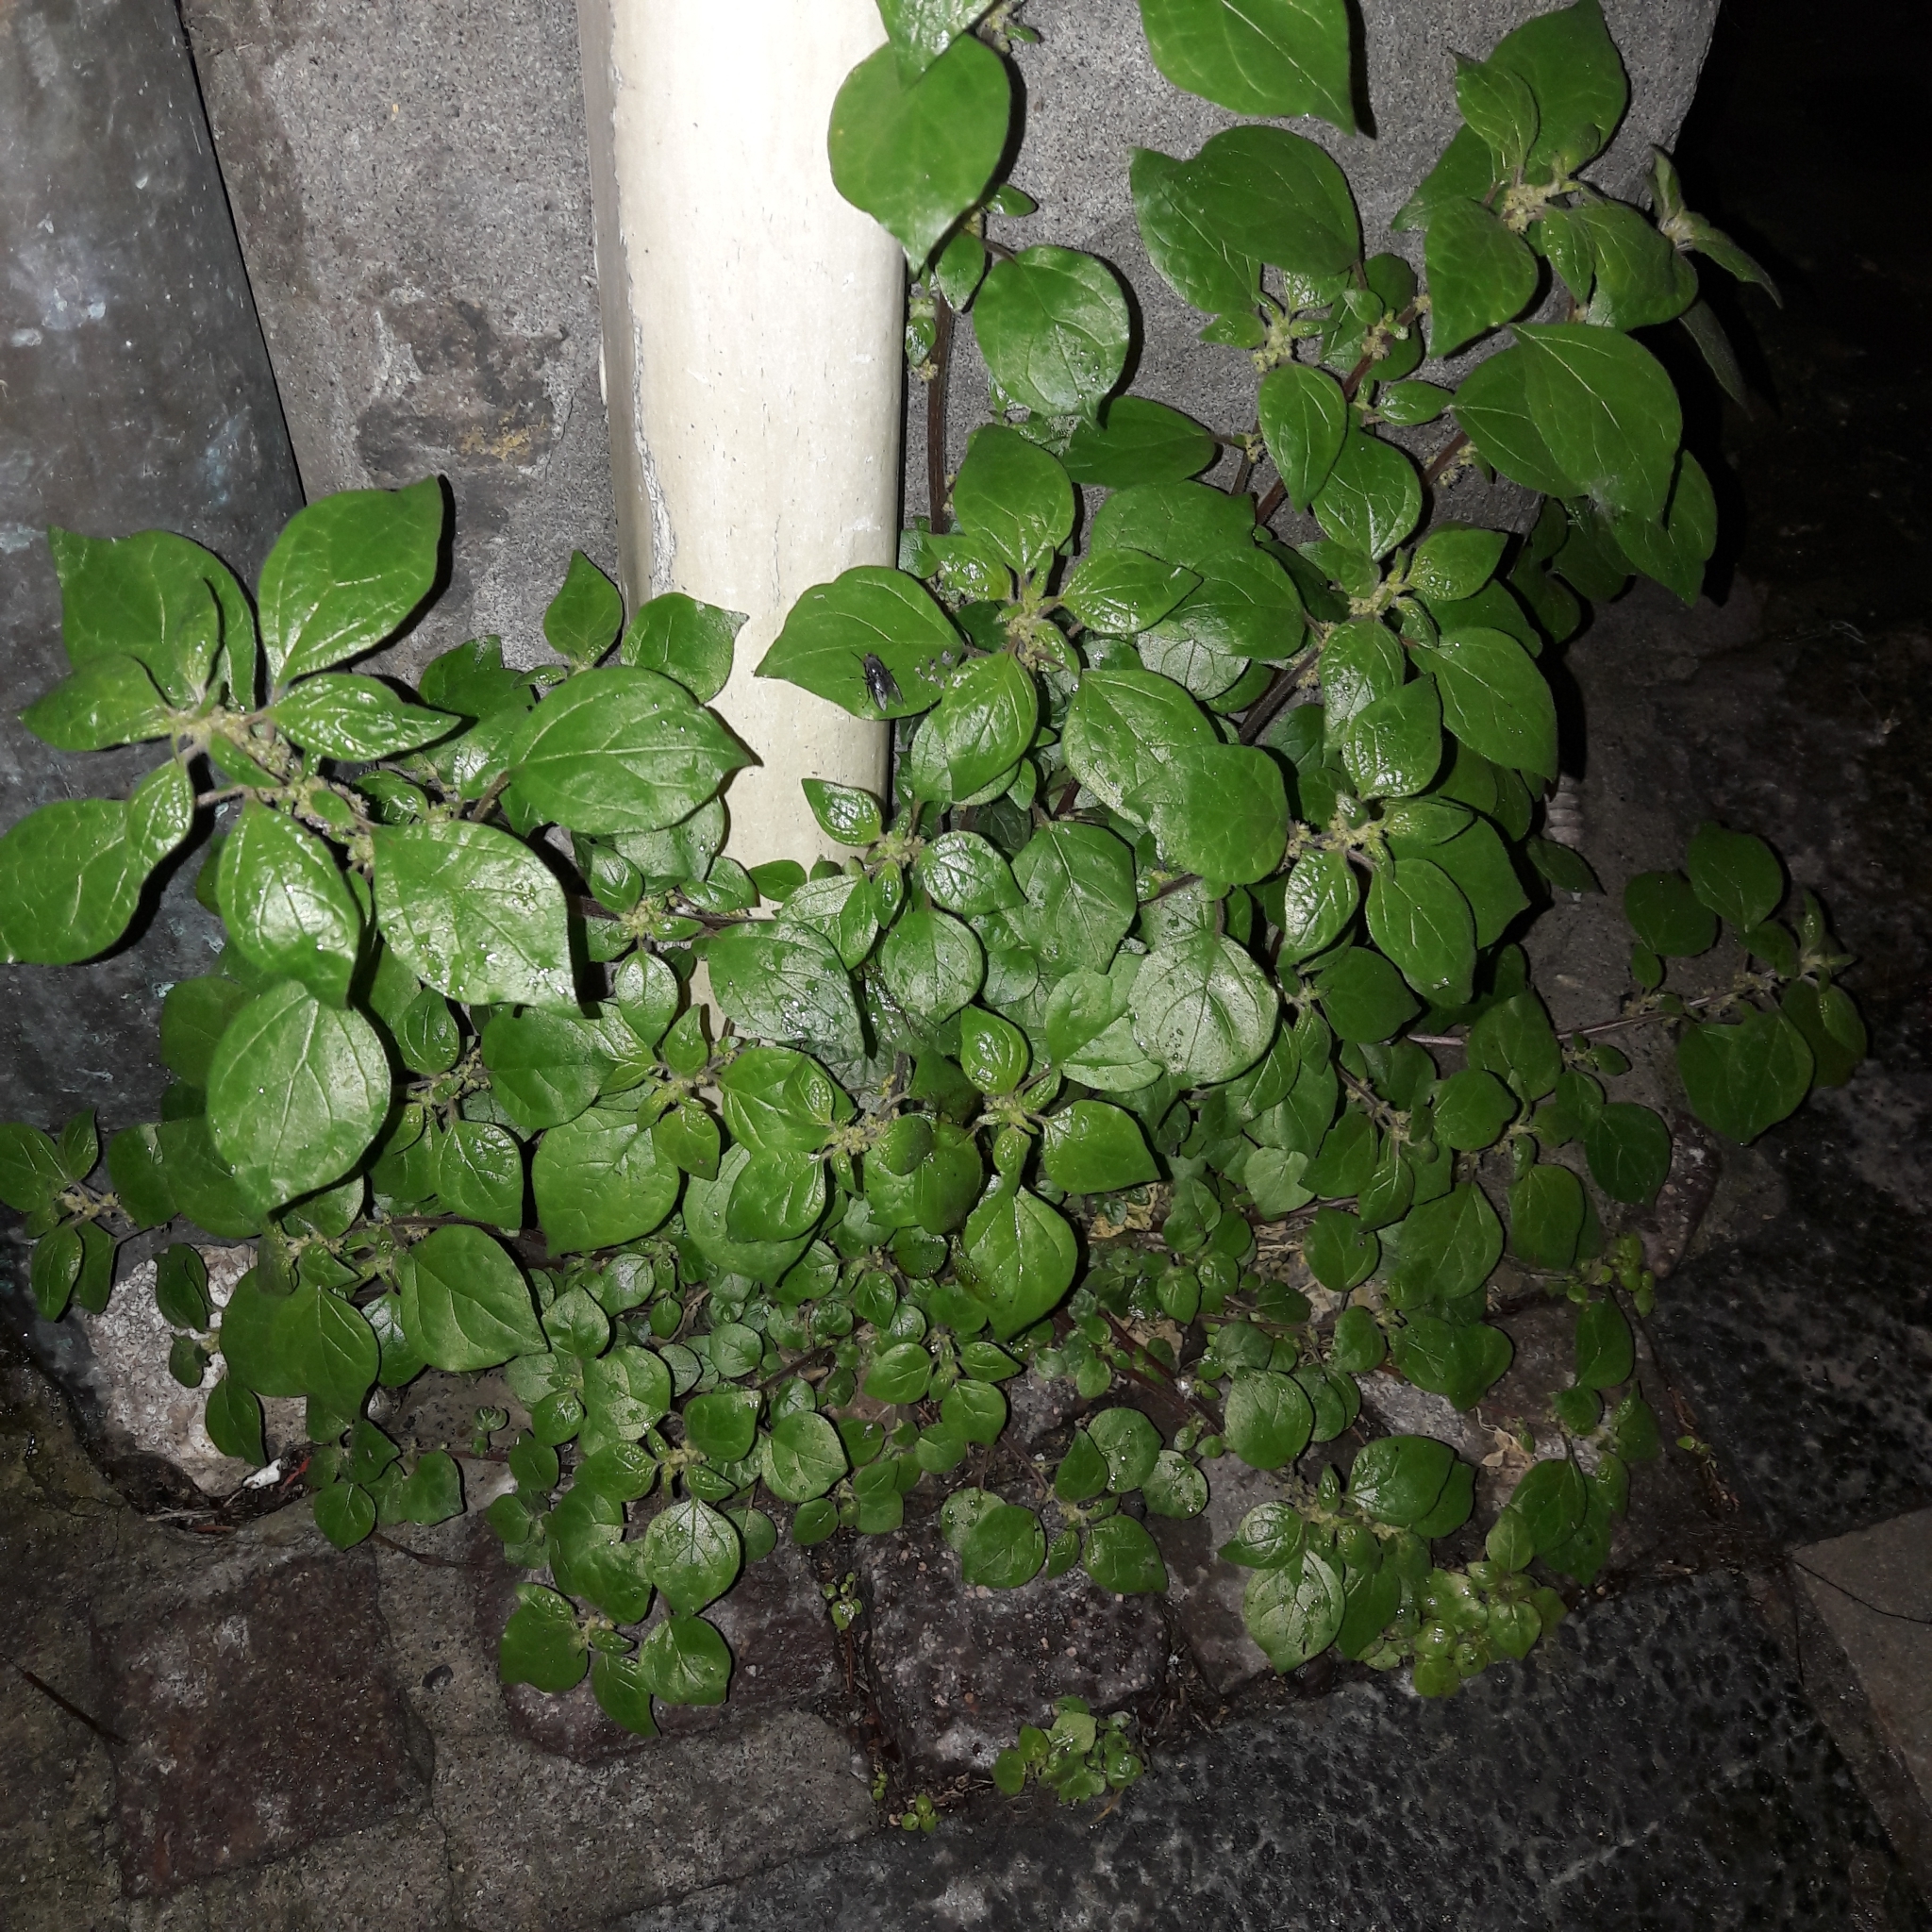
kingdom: Plantae
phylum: Tracheophyta
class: Magnoliopsida
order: Rosales
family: Urticaceae
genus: Parietaria
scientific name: Parietaria judaica
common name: Pellitory-of-the-wall
